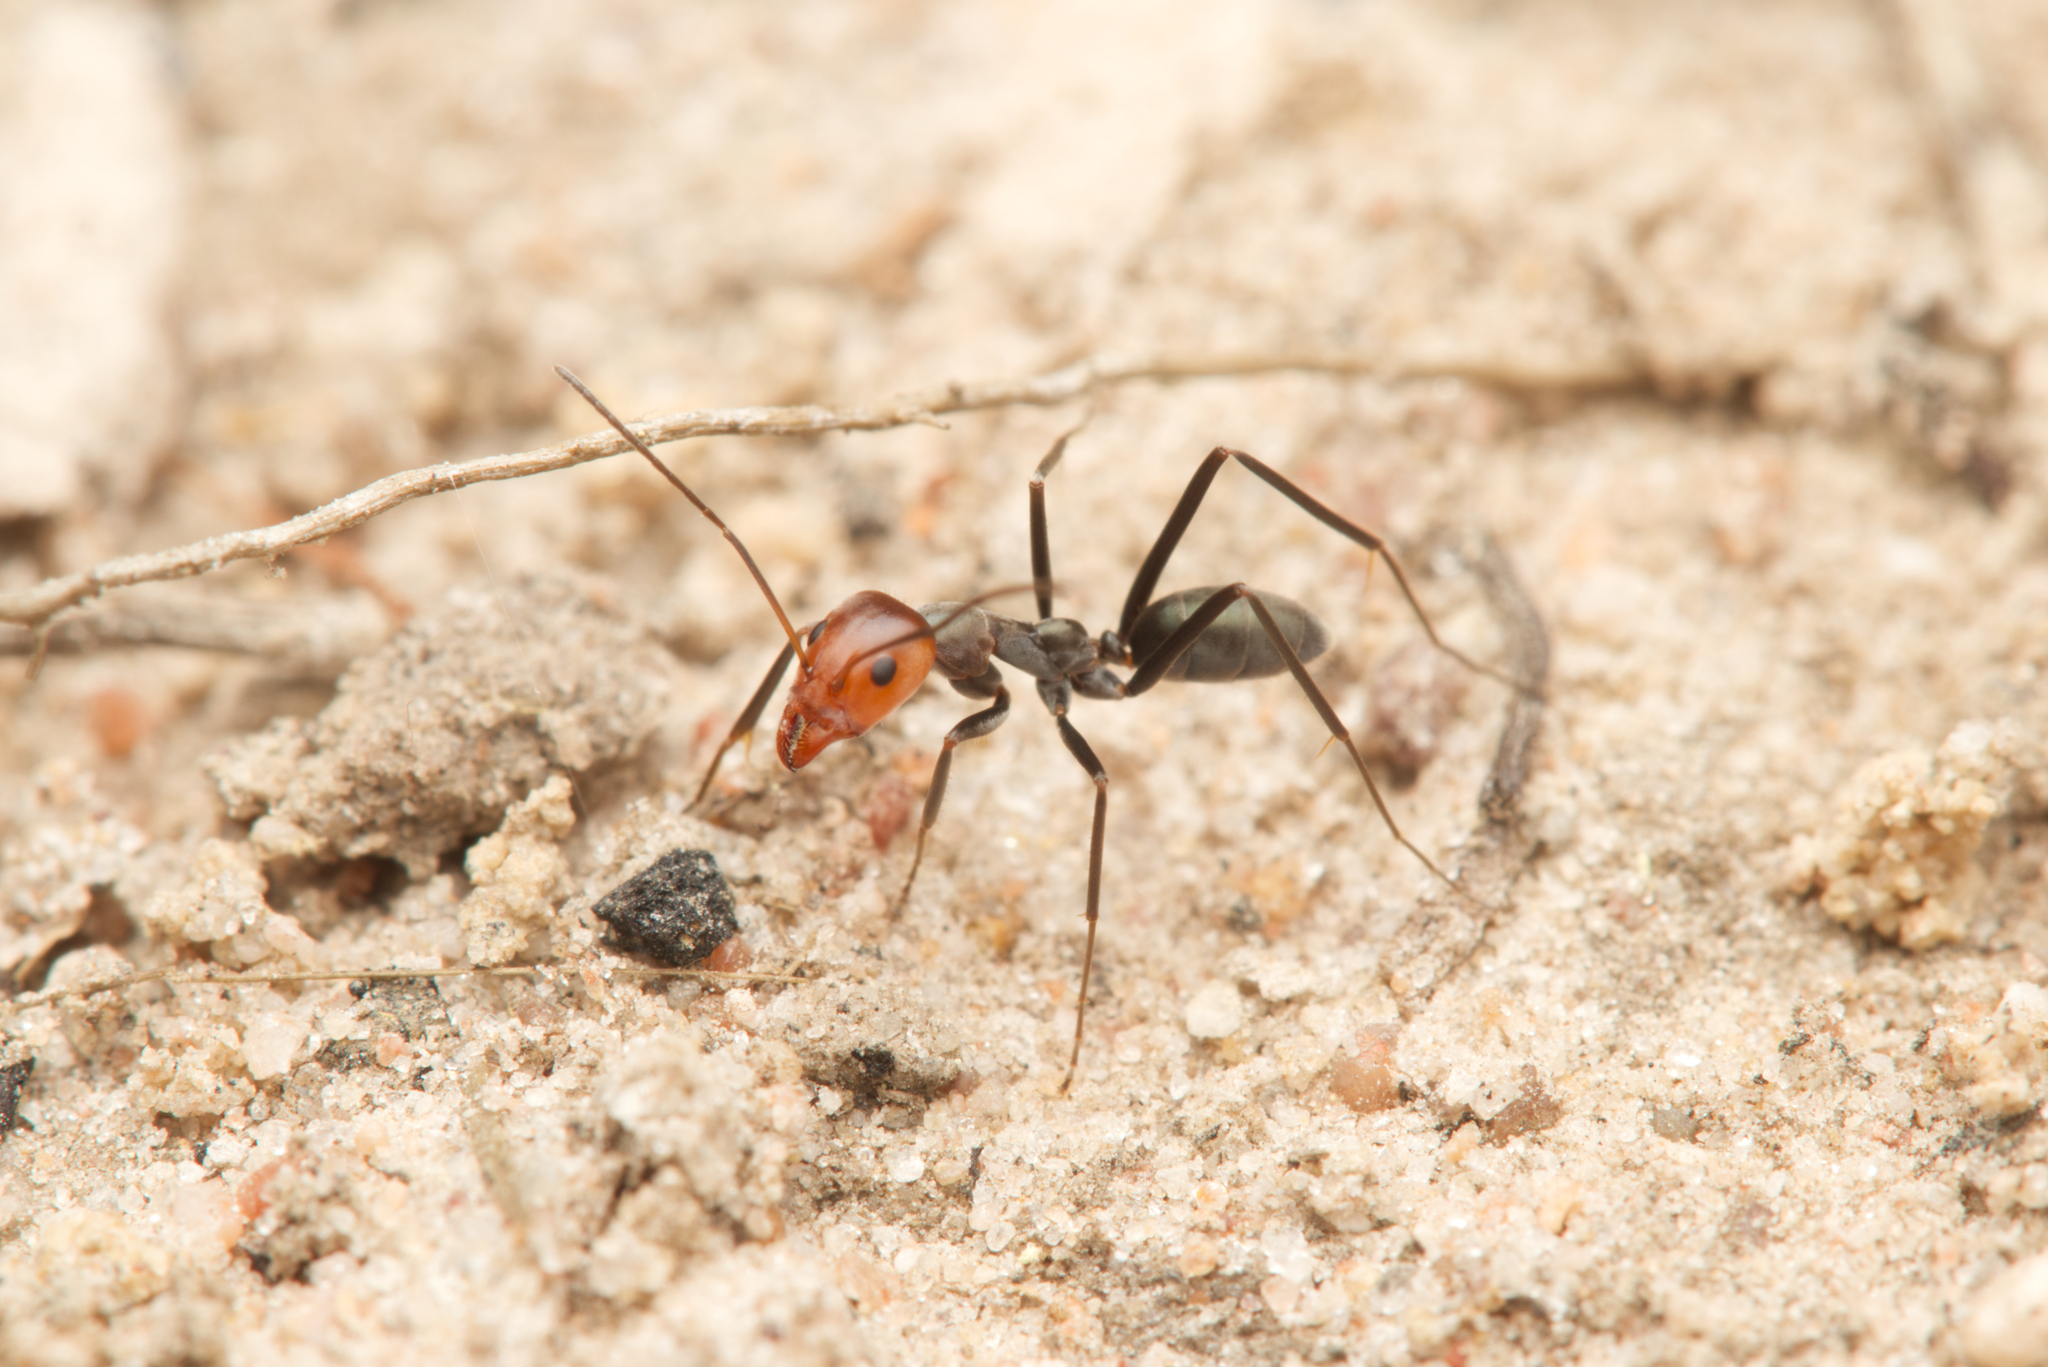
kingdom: Animalia
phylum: Arthropoda
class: Insecta
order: Hymenoptera
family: Formicidae
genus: Iridomyrmex
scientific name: Iridomyrmex
